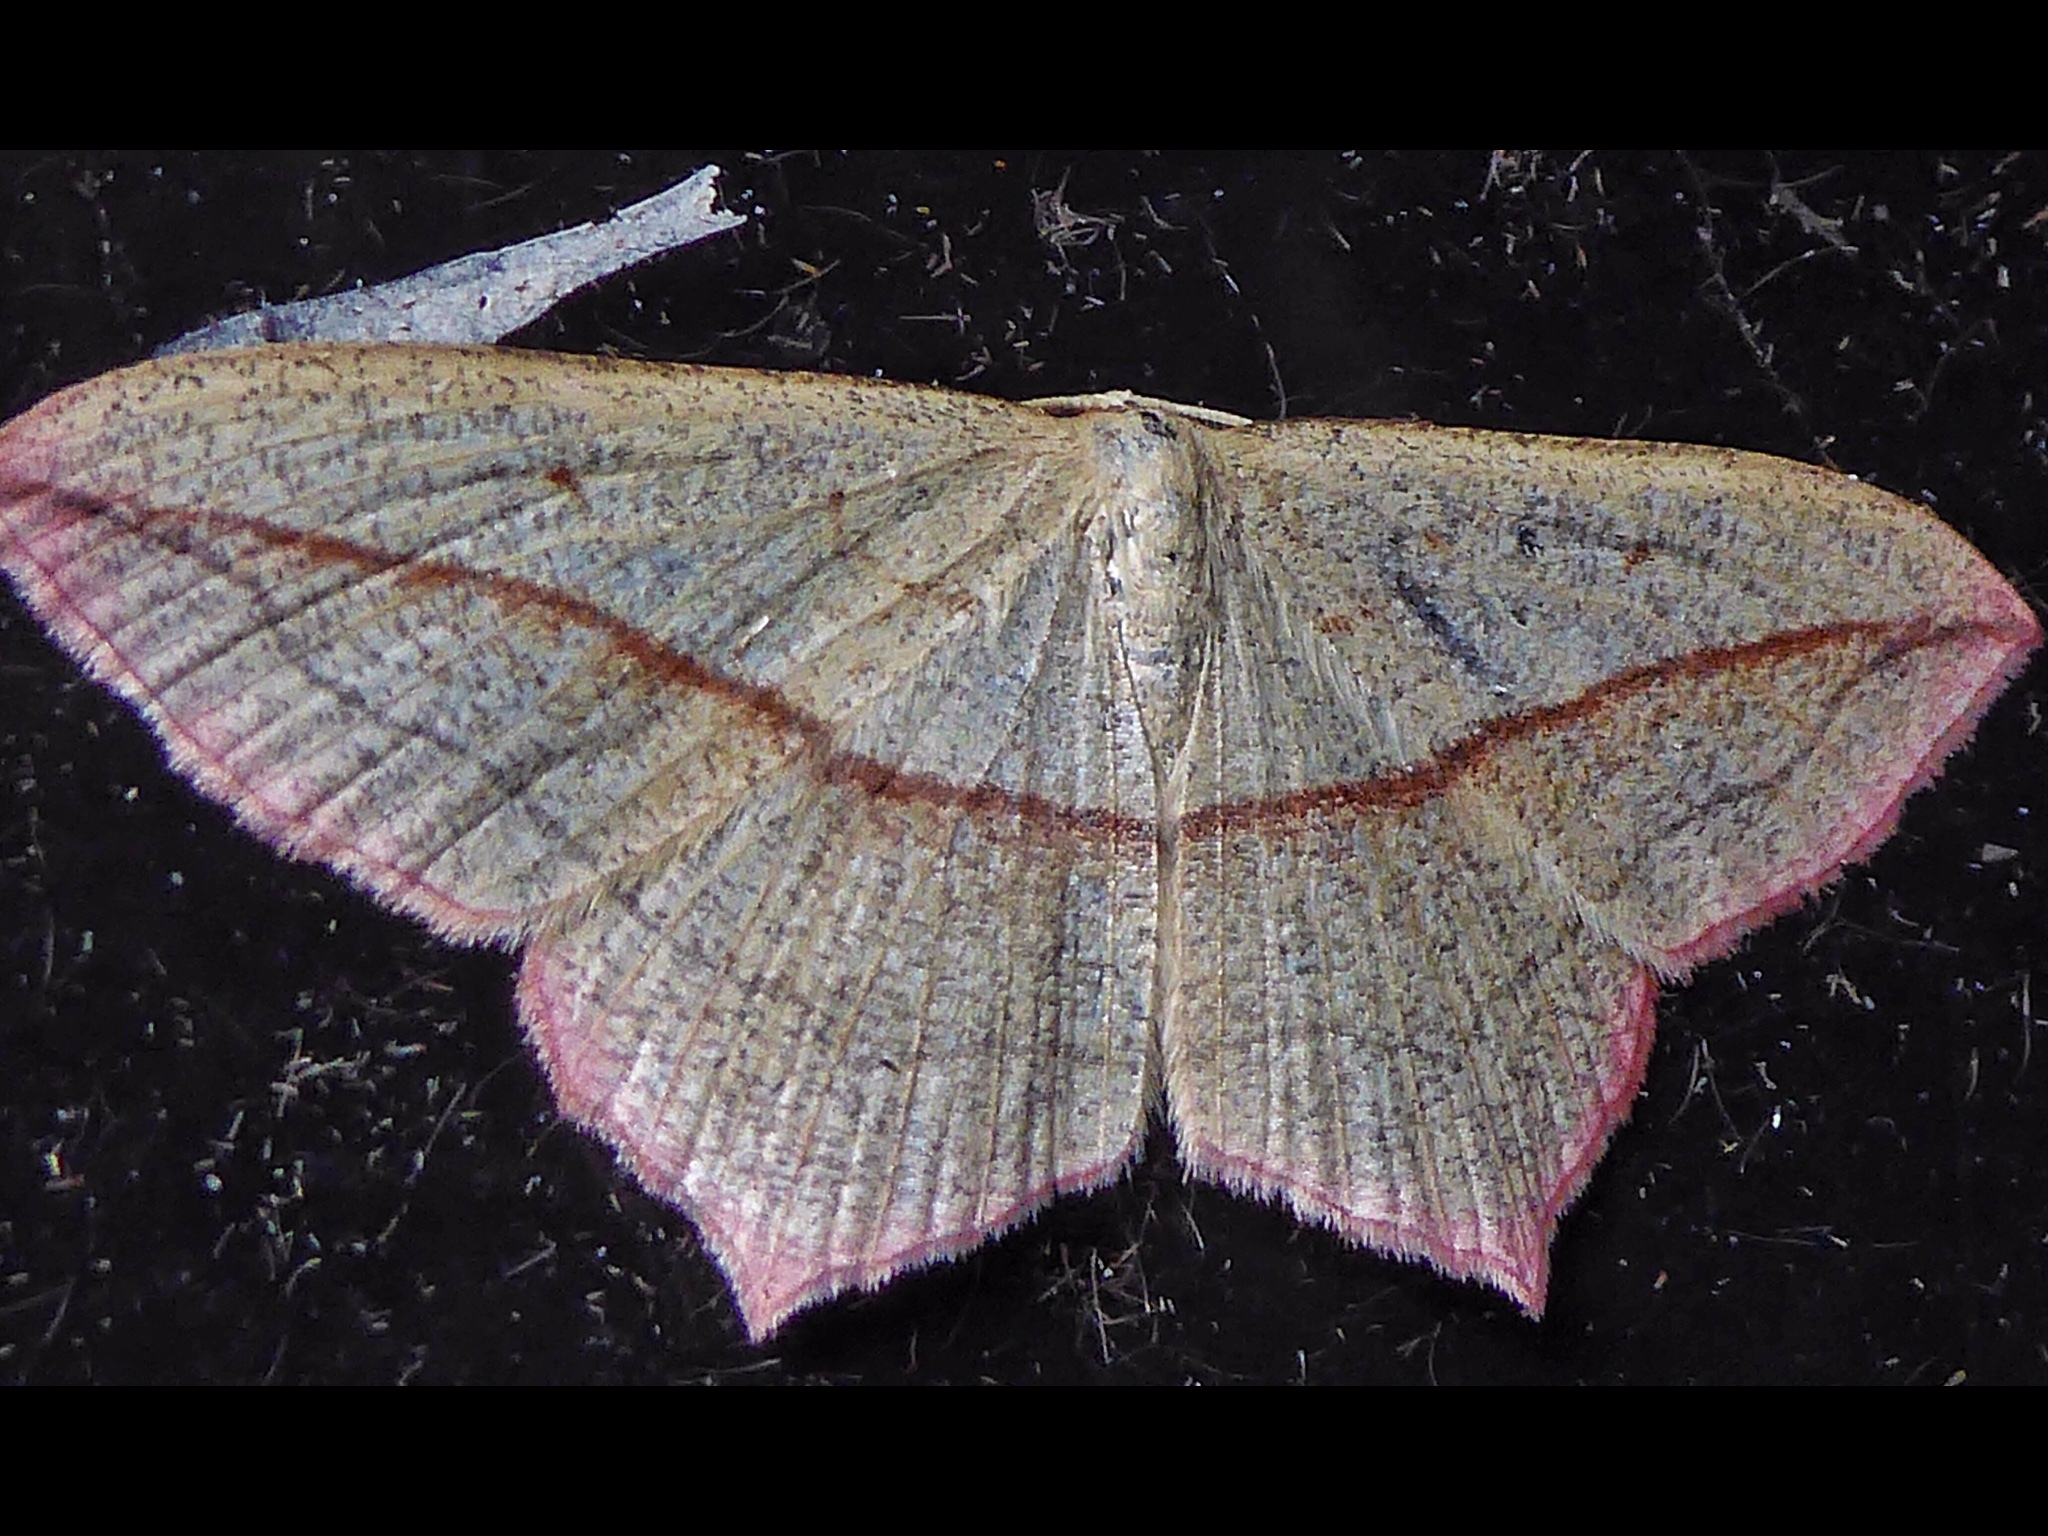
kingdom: Animalia
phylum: Arthropoda
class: Insecta
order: Lepidoptera
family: Geometridae
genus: Timandra
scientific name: Timandra comae
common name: Blood-vein
